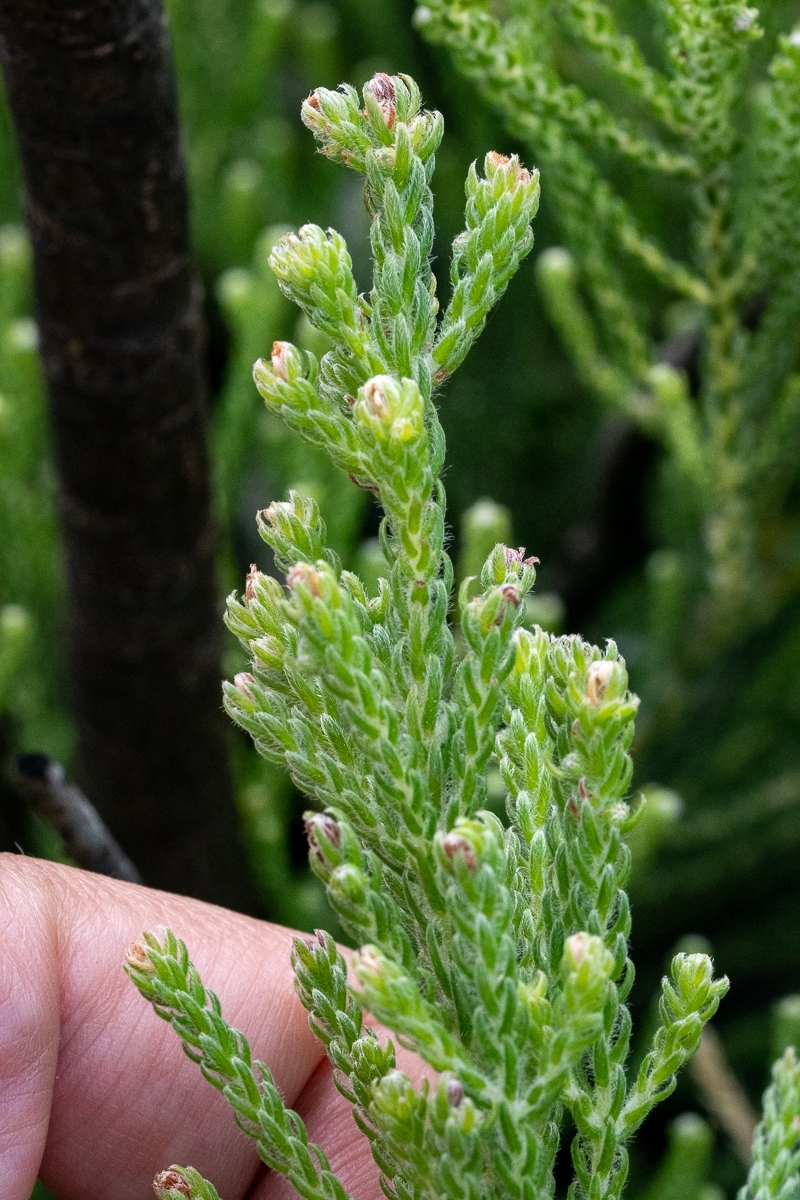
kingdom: Plantae
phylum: Tracheophyta
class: Magnoliopsida
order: Bruniales
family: Bruniaceae
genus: Brunia
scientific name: Brunia noduliflora
